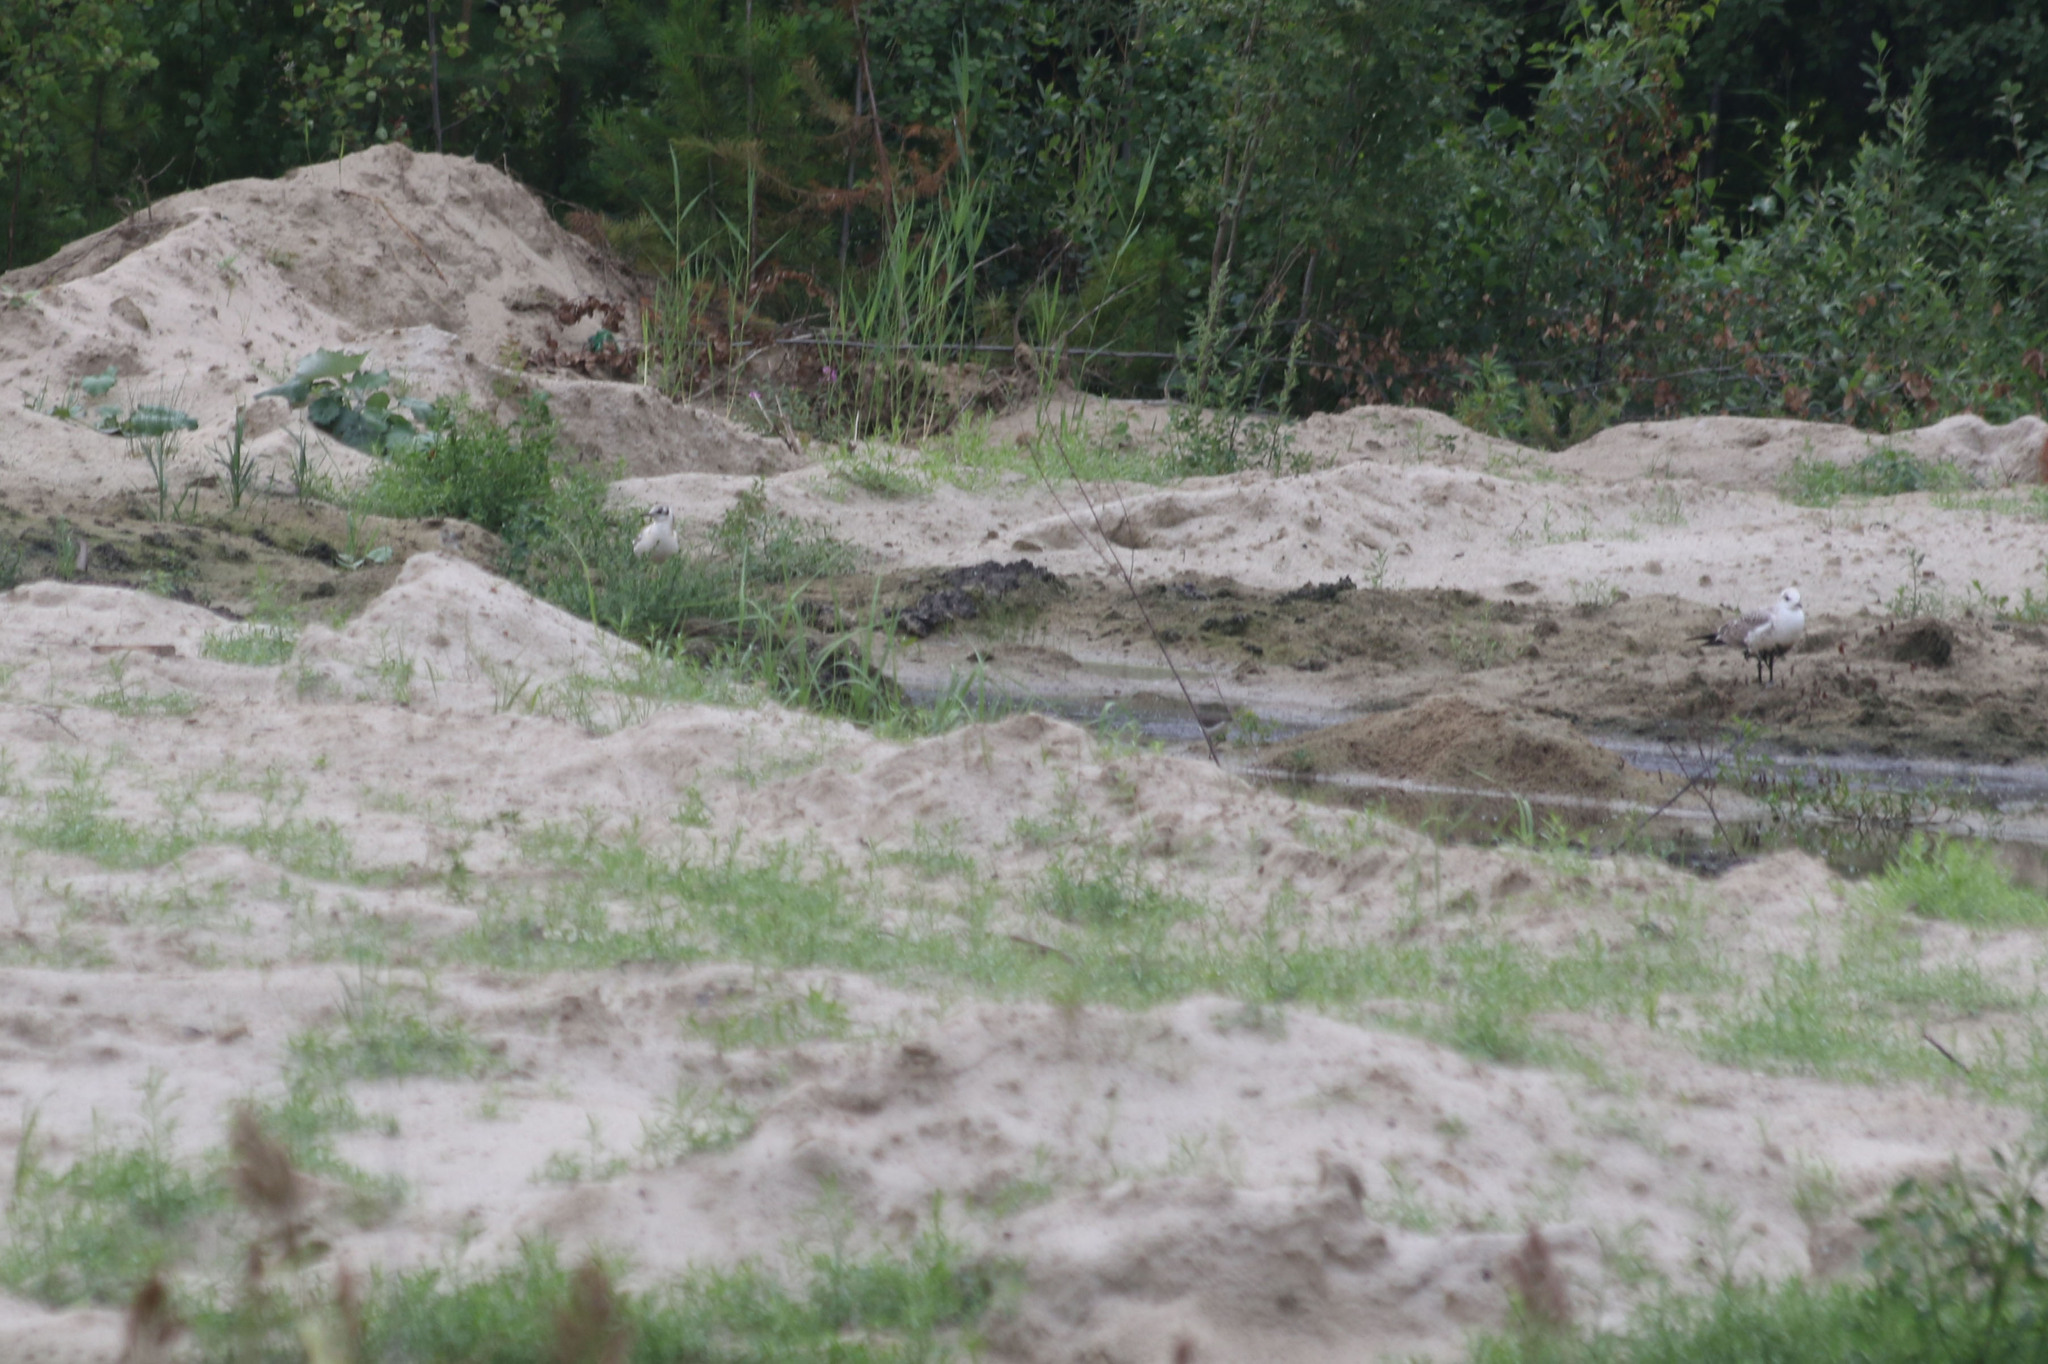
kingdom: Animalia
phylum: Chordata
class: Aves
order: Charadriiformes
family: Laridae
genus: Larus
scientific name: Larus canus
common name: Mew gull
